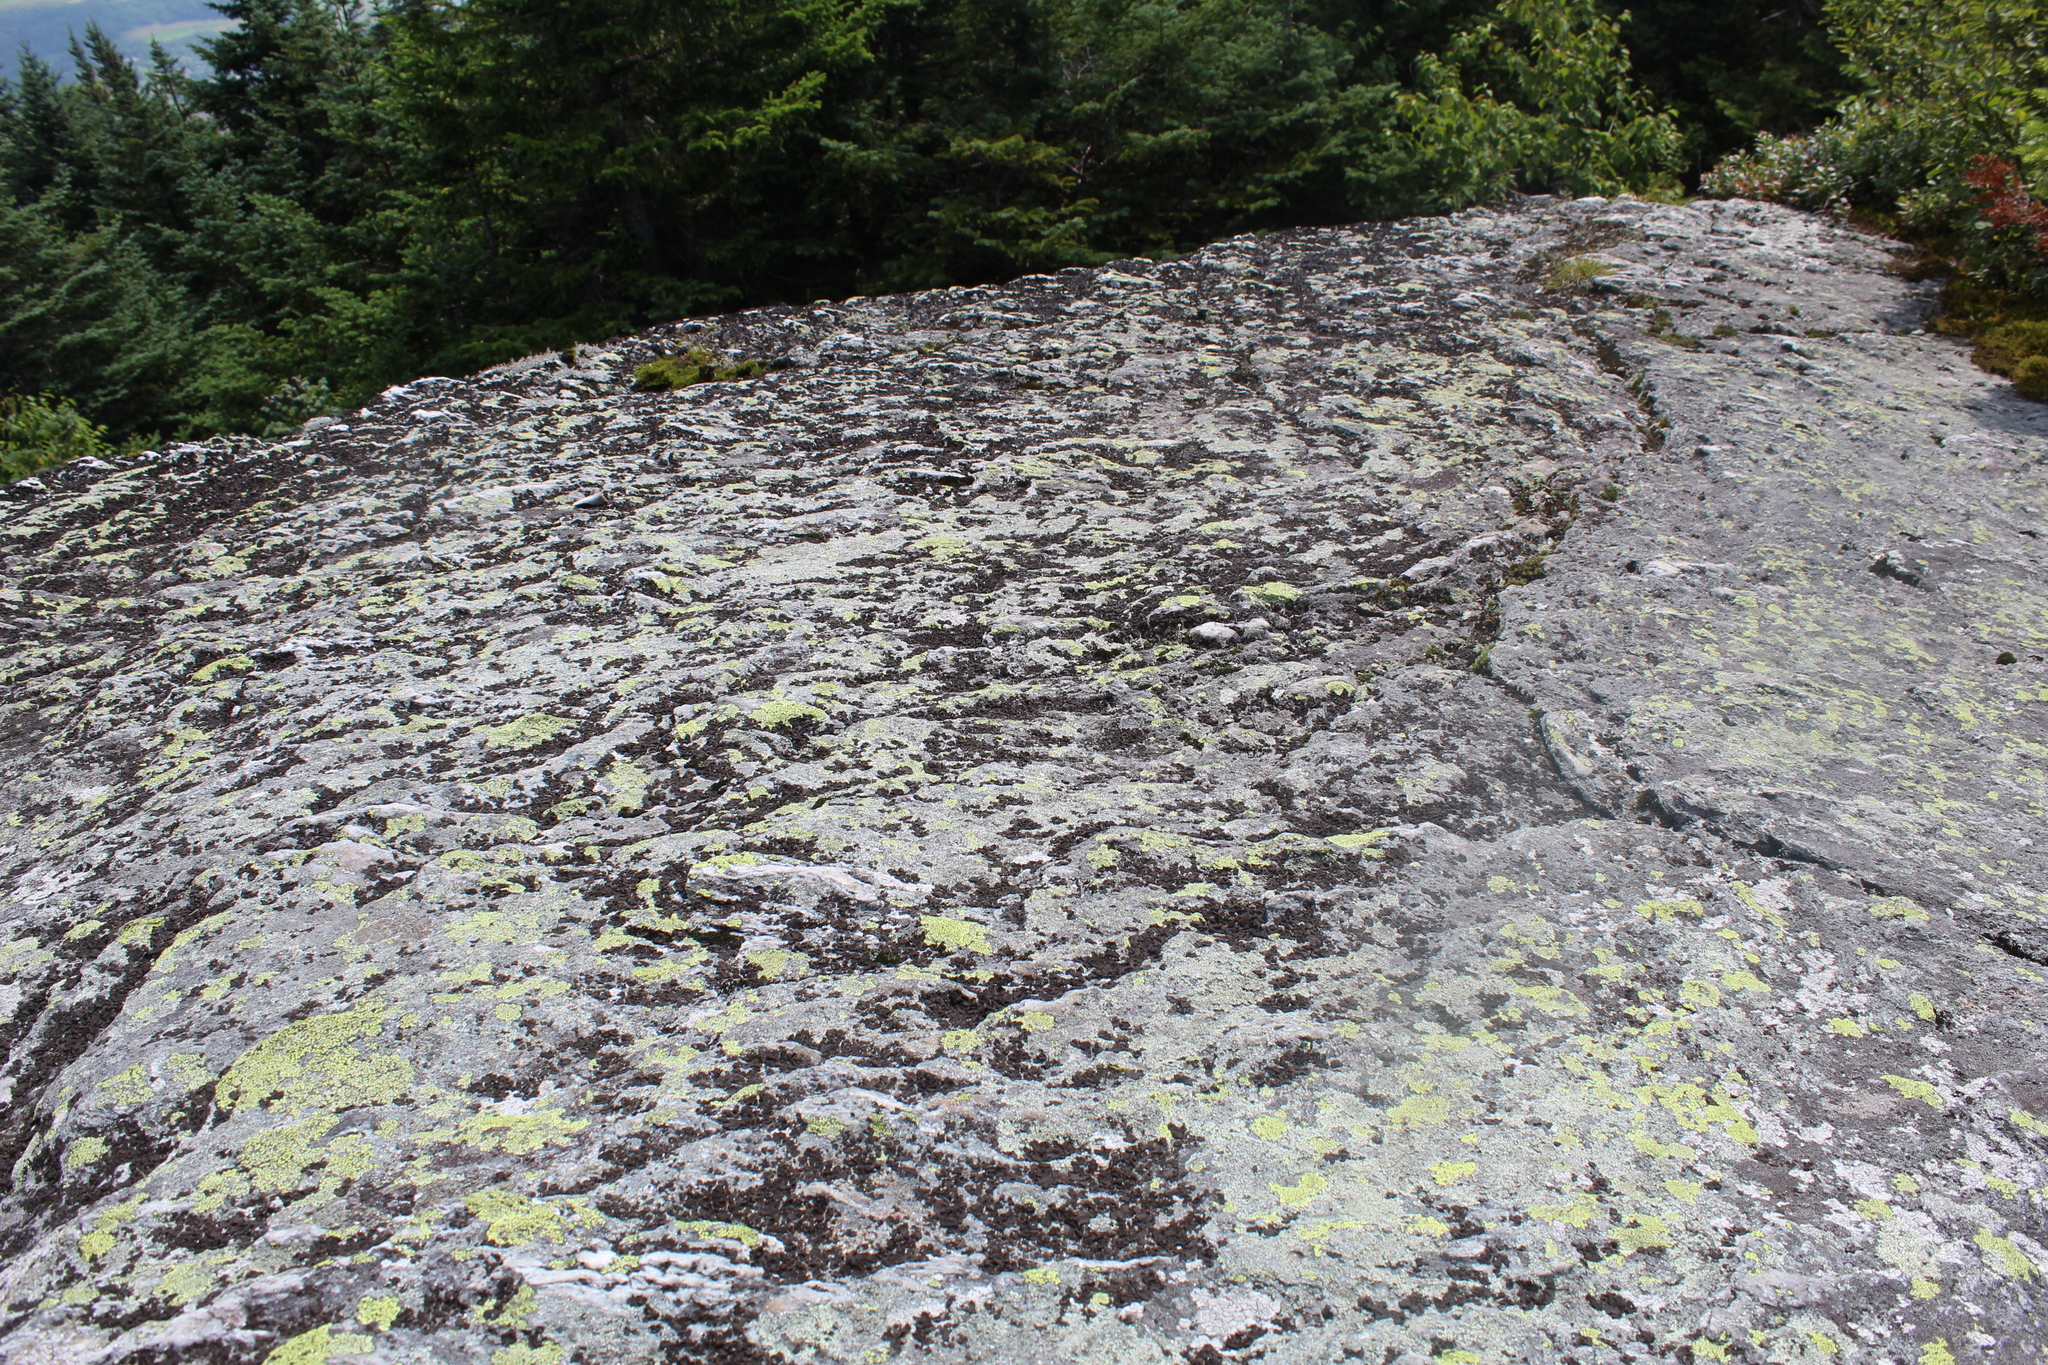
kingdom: Fungi
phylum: Ascomycota
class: Lecanoromycetes
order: Umbilicariales
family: Umbilicariaceae
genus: Umbilicaria
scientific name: Umbilicaria deusta
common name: Peppered rock tripe
